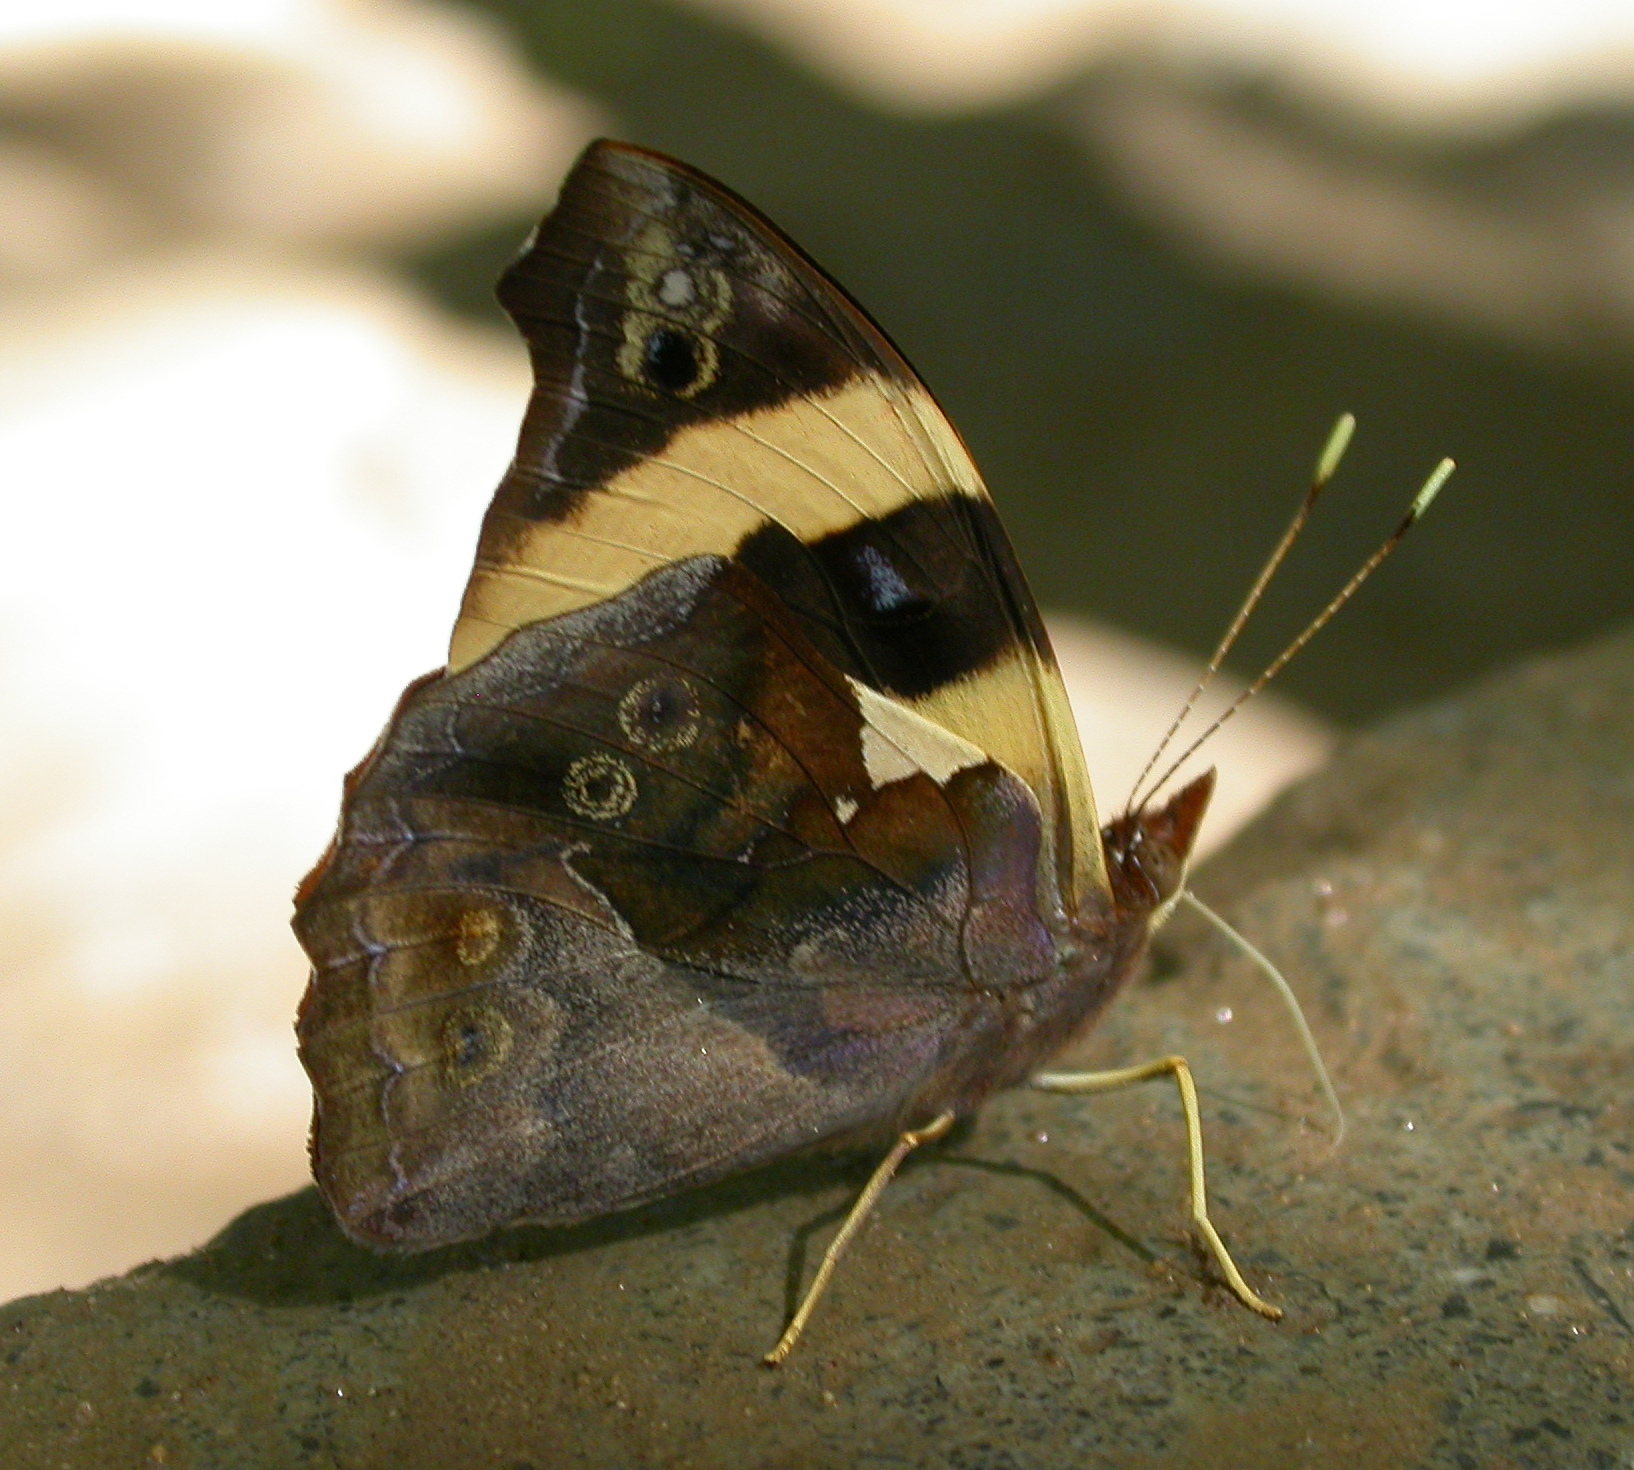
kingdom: Animalia
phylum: Arthropoda
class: Insecta
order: Lepidoptera
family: Nymphalidae
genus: Epiphile
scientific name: Epiphile adrasta
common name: Common banner
